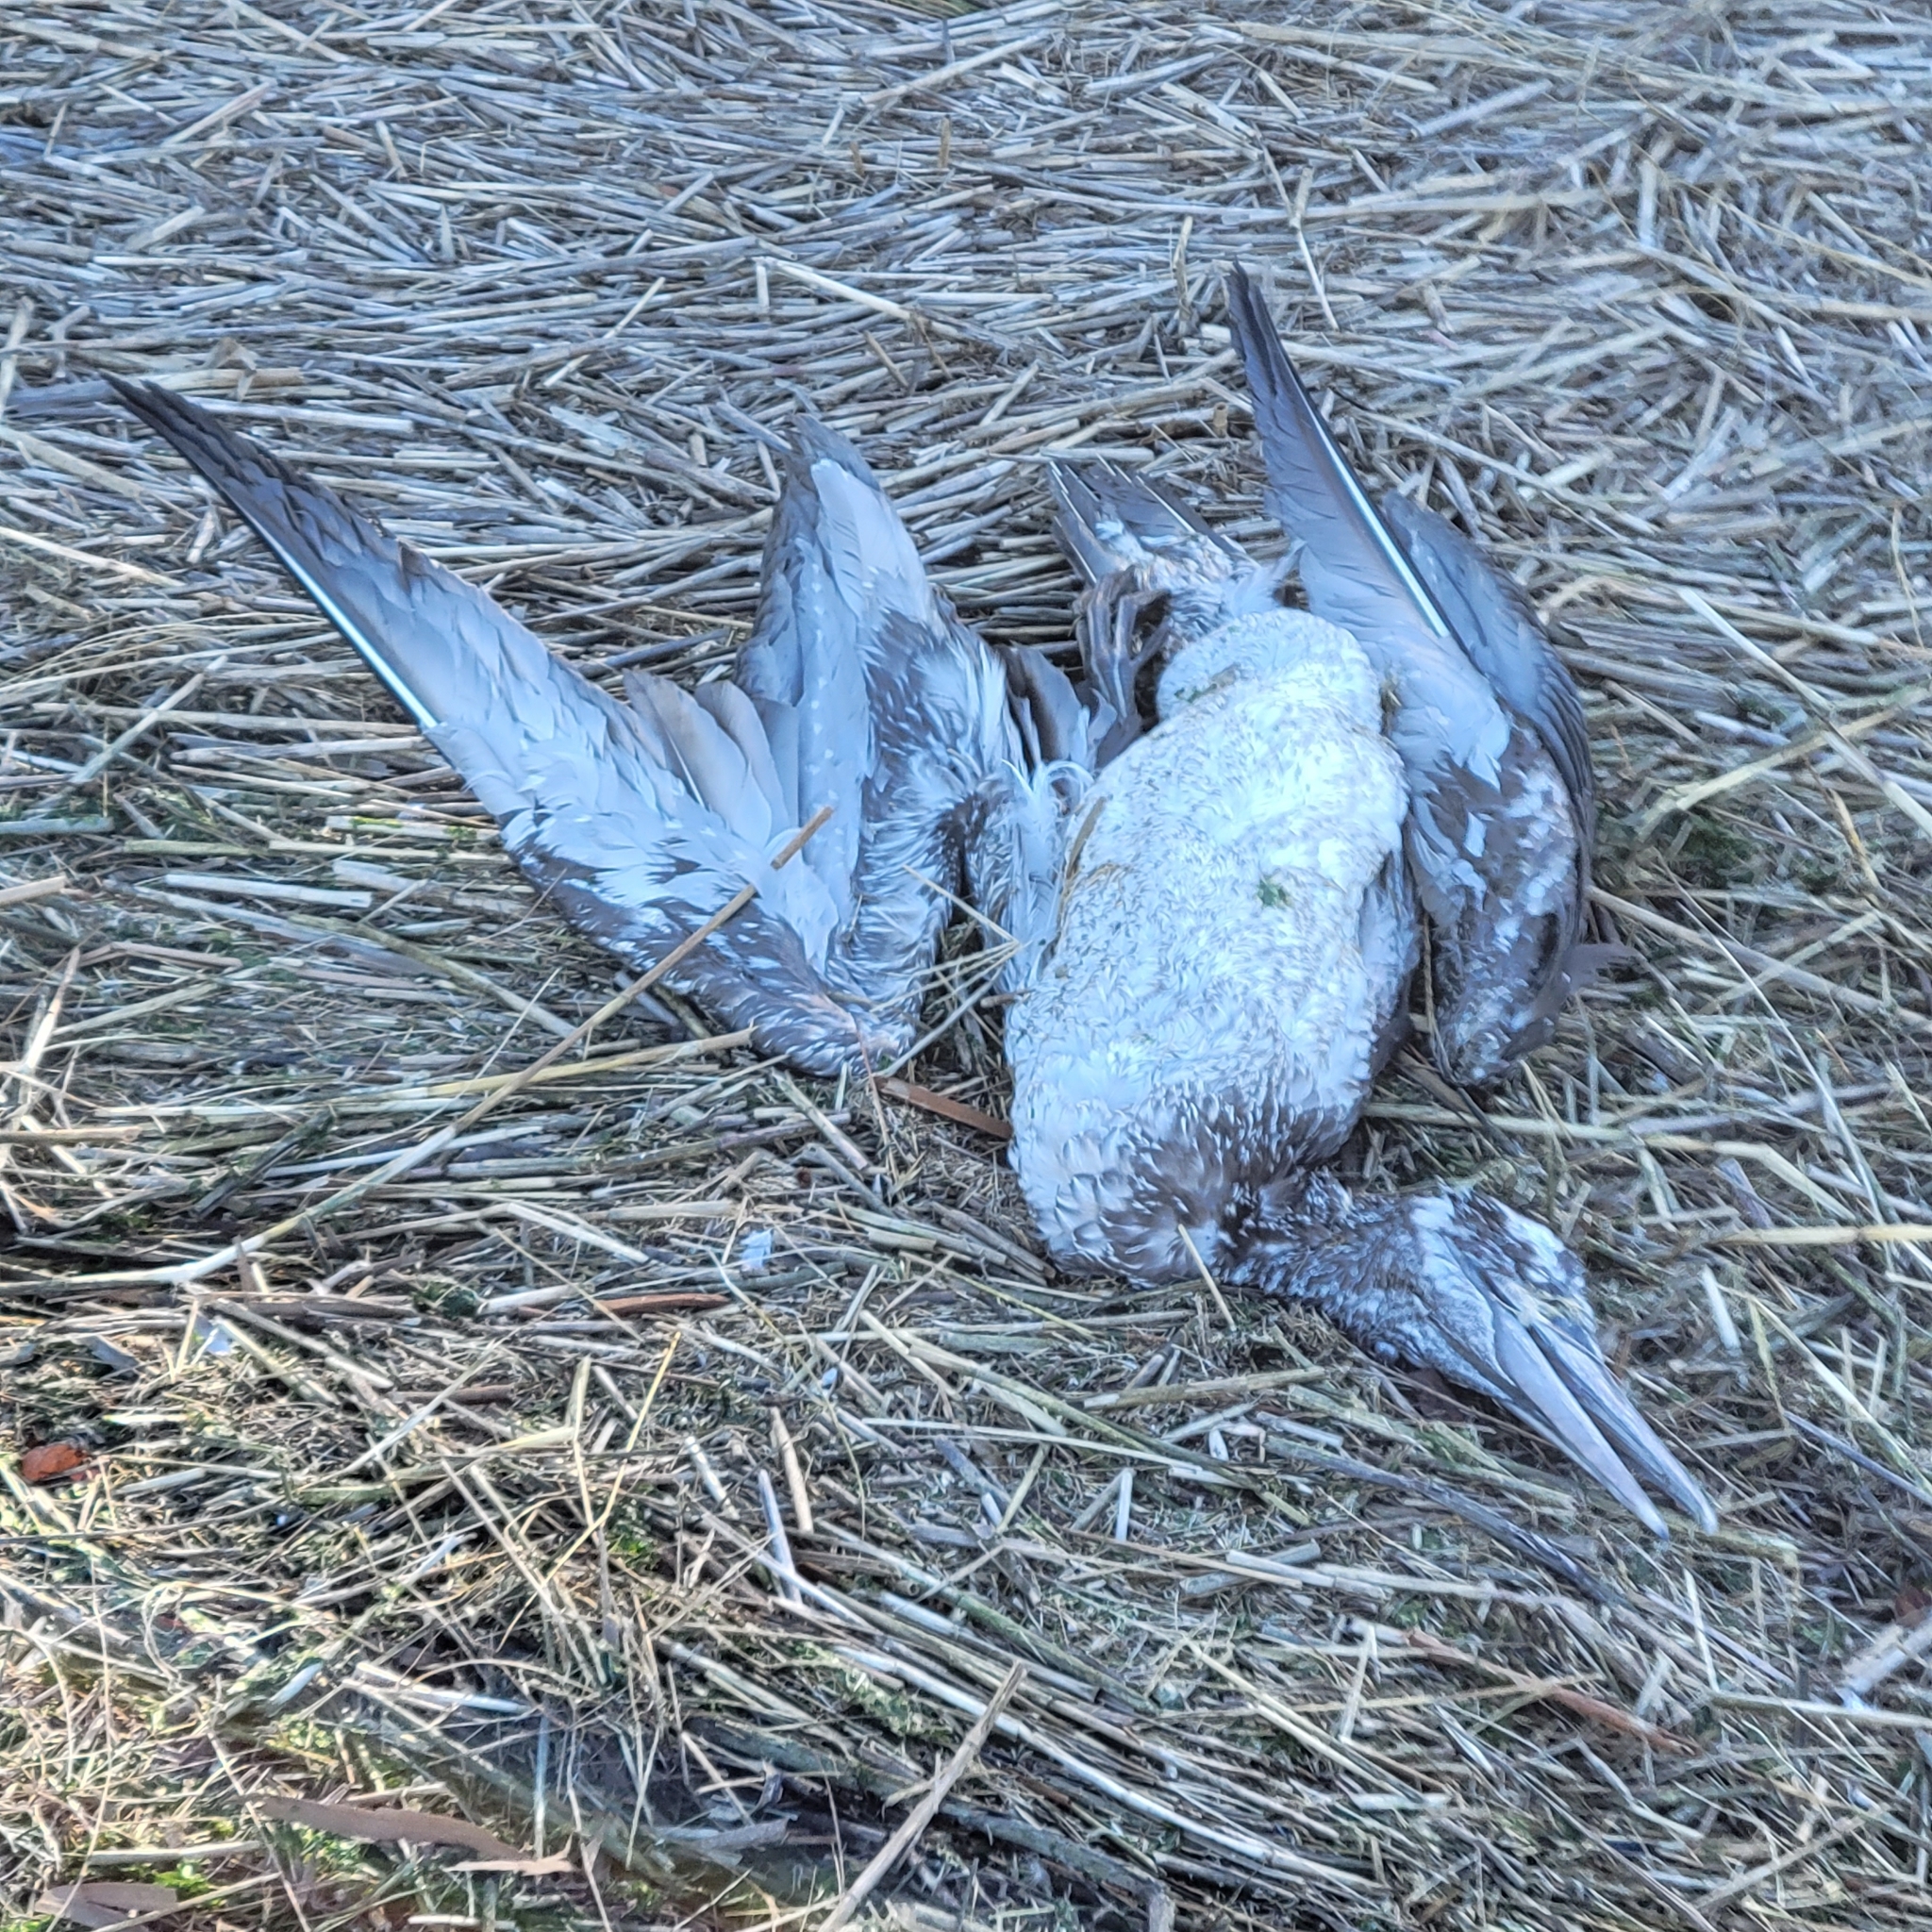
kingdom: Animalia
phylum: Chordata
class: Aves
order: Suliformes
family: Sulidae
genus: Morus
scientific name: Morus bassanus
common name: Northern gannet
